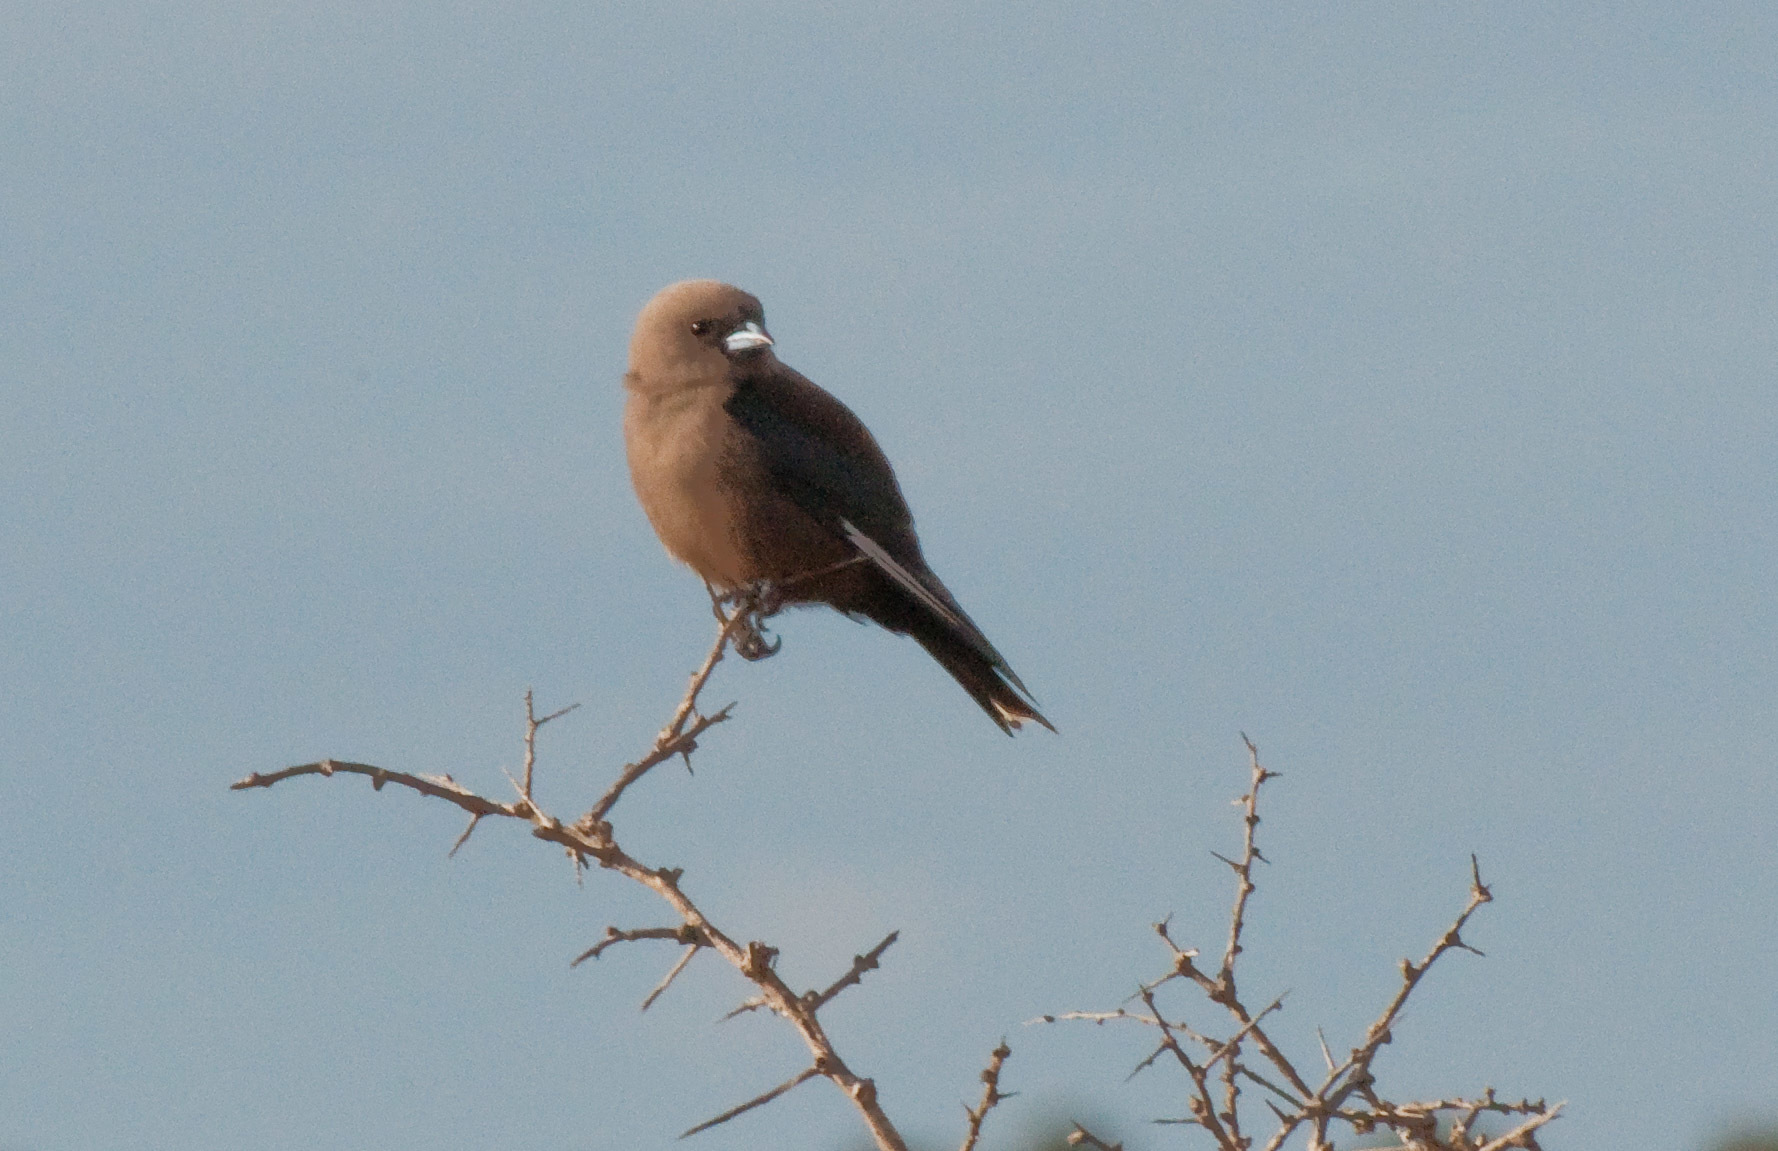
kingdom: Animalia
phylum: Chordata
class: Aves
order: Passeriformes
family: Artamidae
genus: Artamus
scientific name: Artamus cyanopterus
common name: Dusky woodswallow
